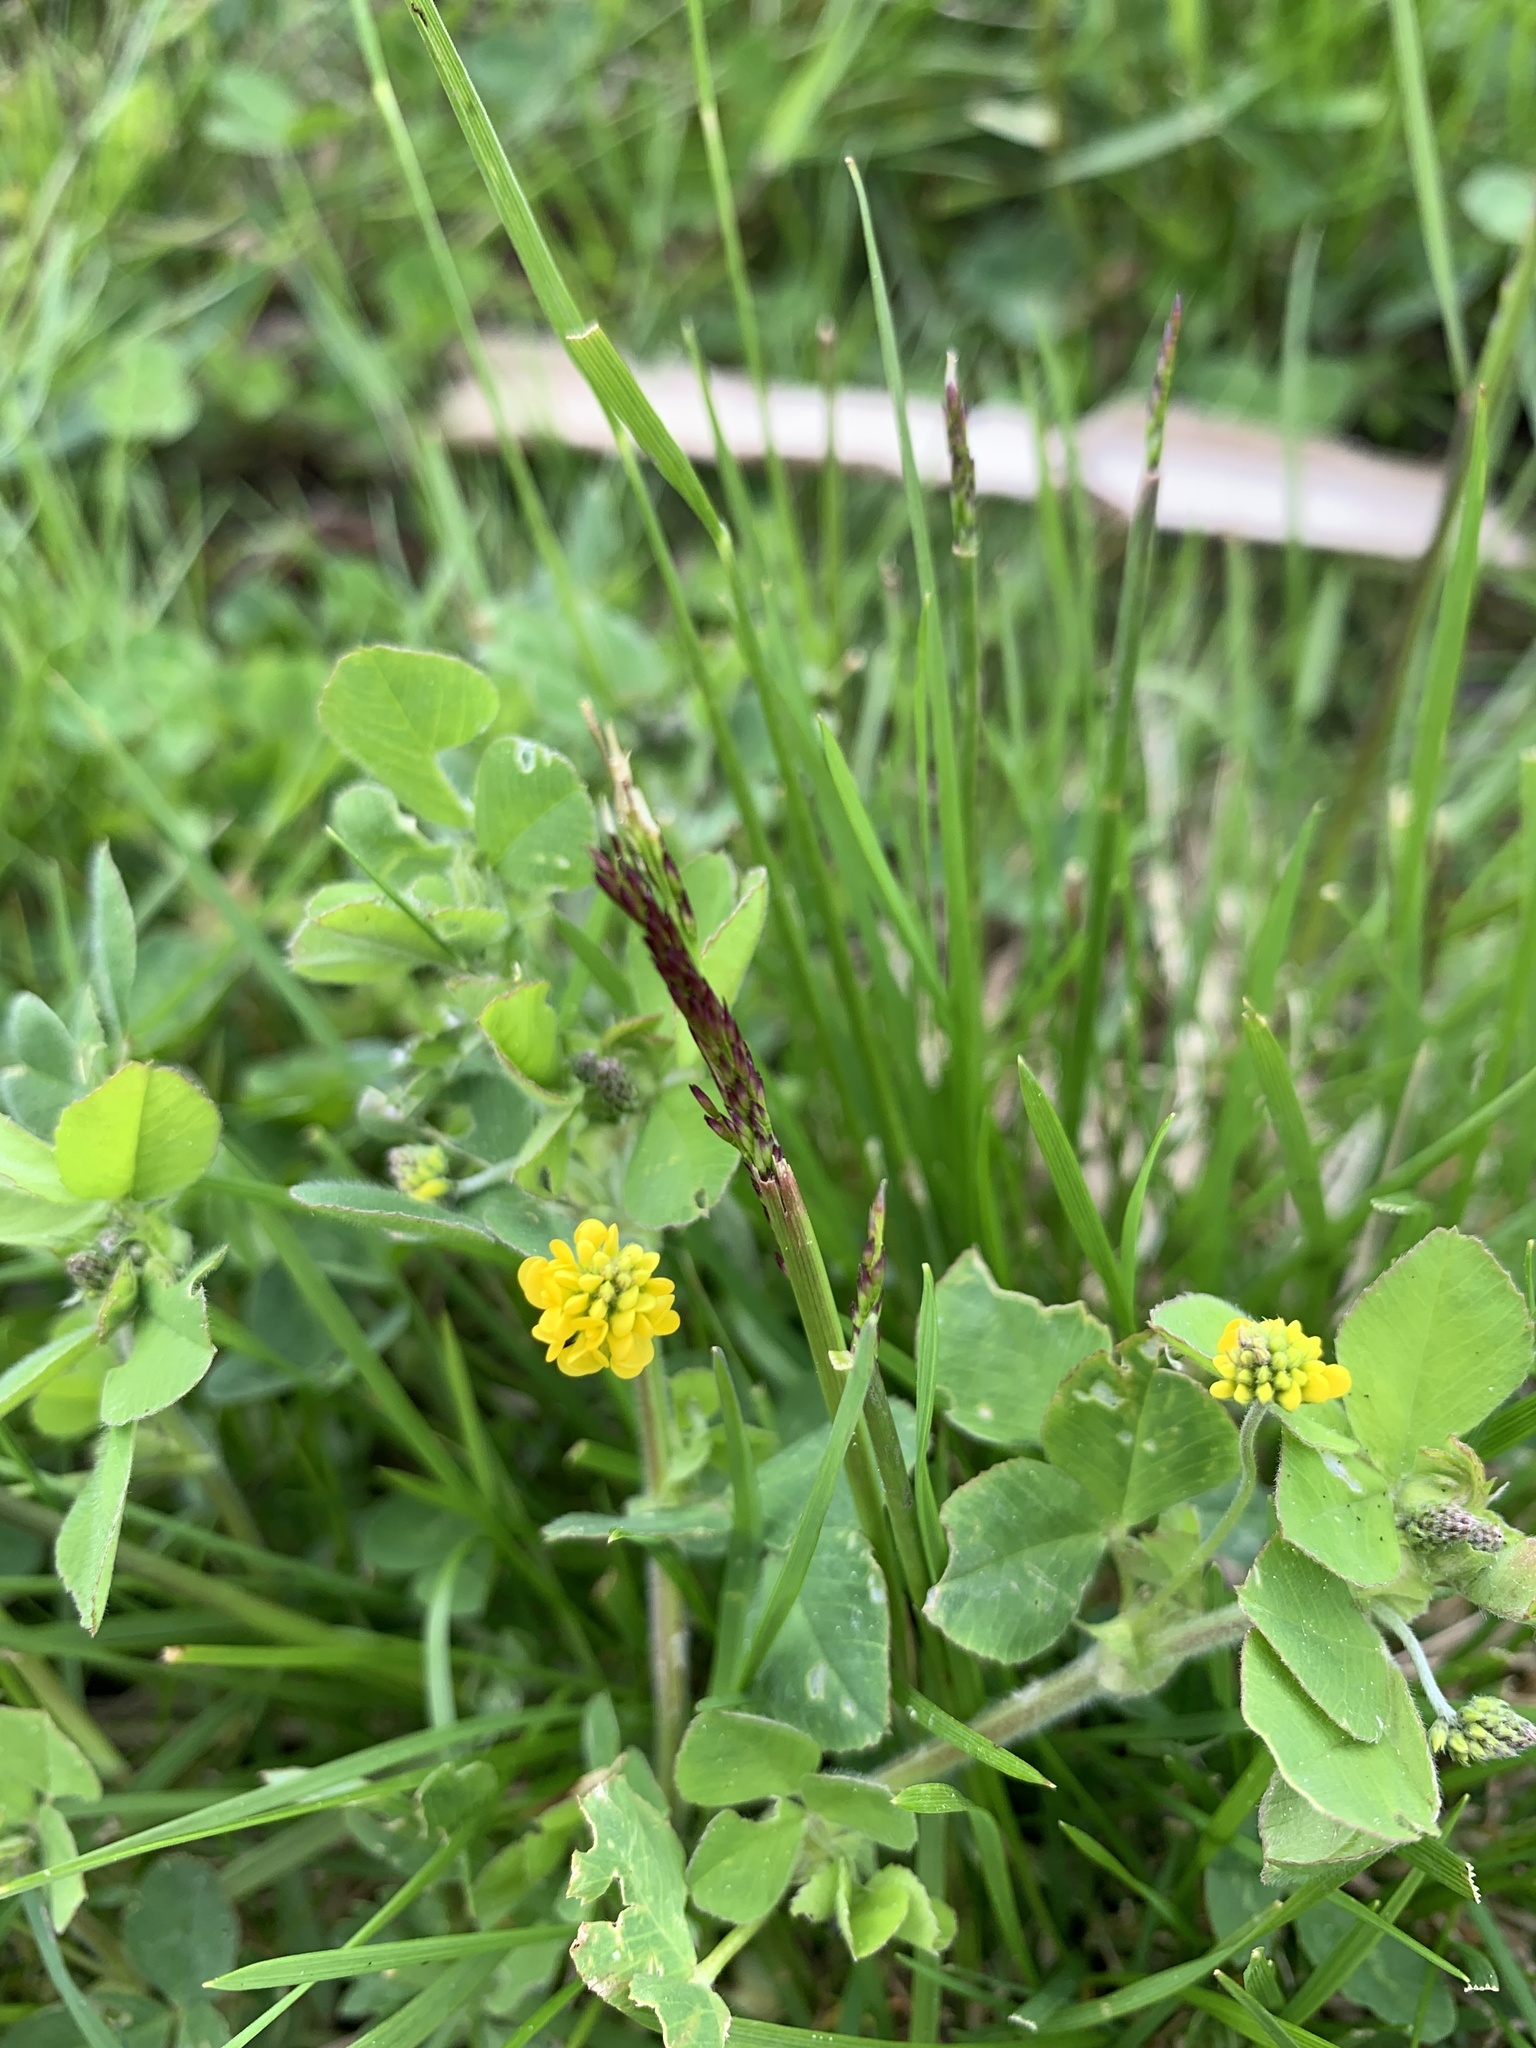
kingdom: Plantae
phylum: Tracheophyta
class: Magnoliopsida
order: Fabales
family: Fabaceae
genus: Medicago
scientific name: Medicago lupulina
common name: Black medick
